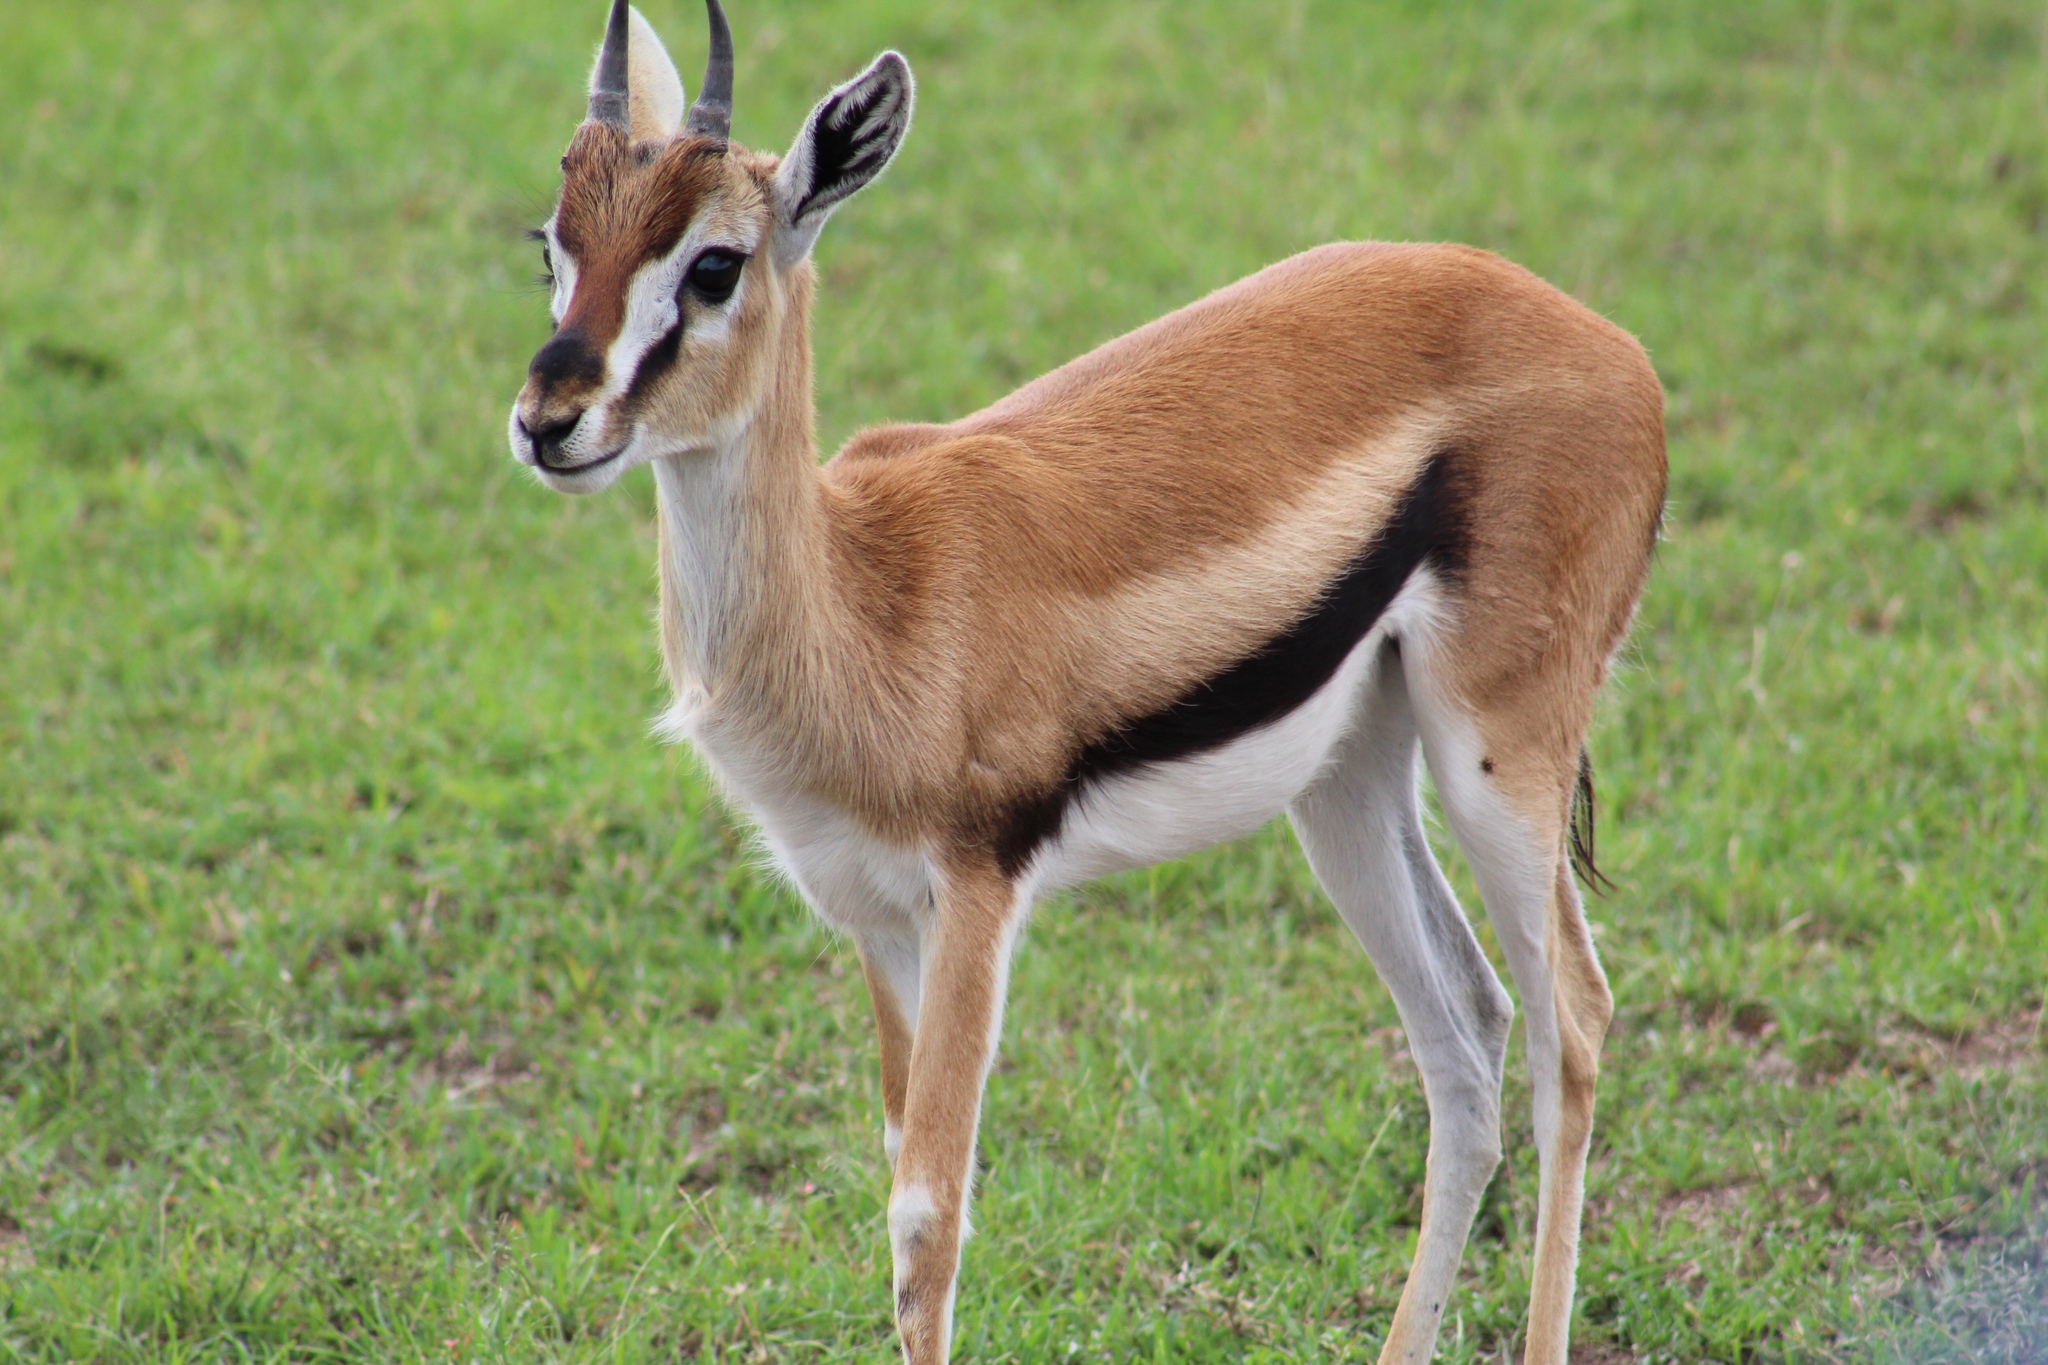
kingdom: Animalia
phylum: Chordata
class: Mammalia
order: Artiodactyla
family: Bovidae
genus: Eudorcas
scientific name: Eudorcas thomsonii
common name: Thomson's gazelle
